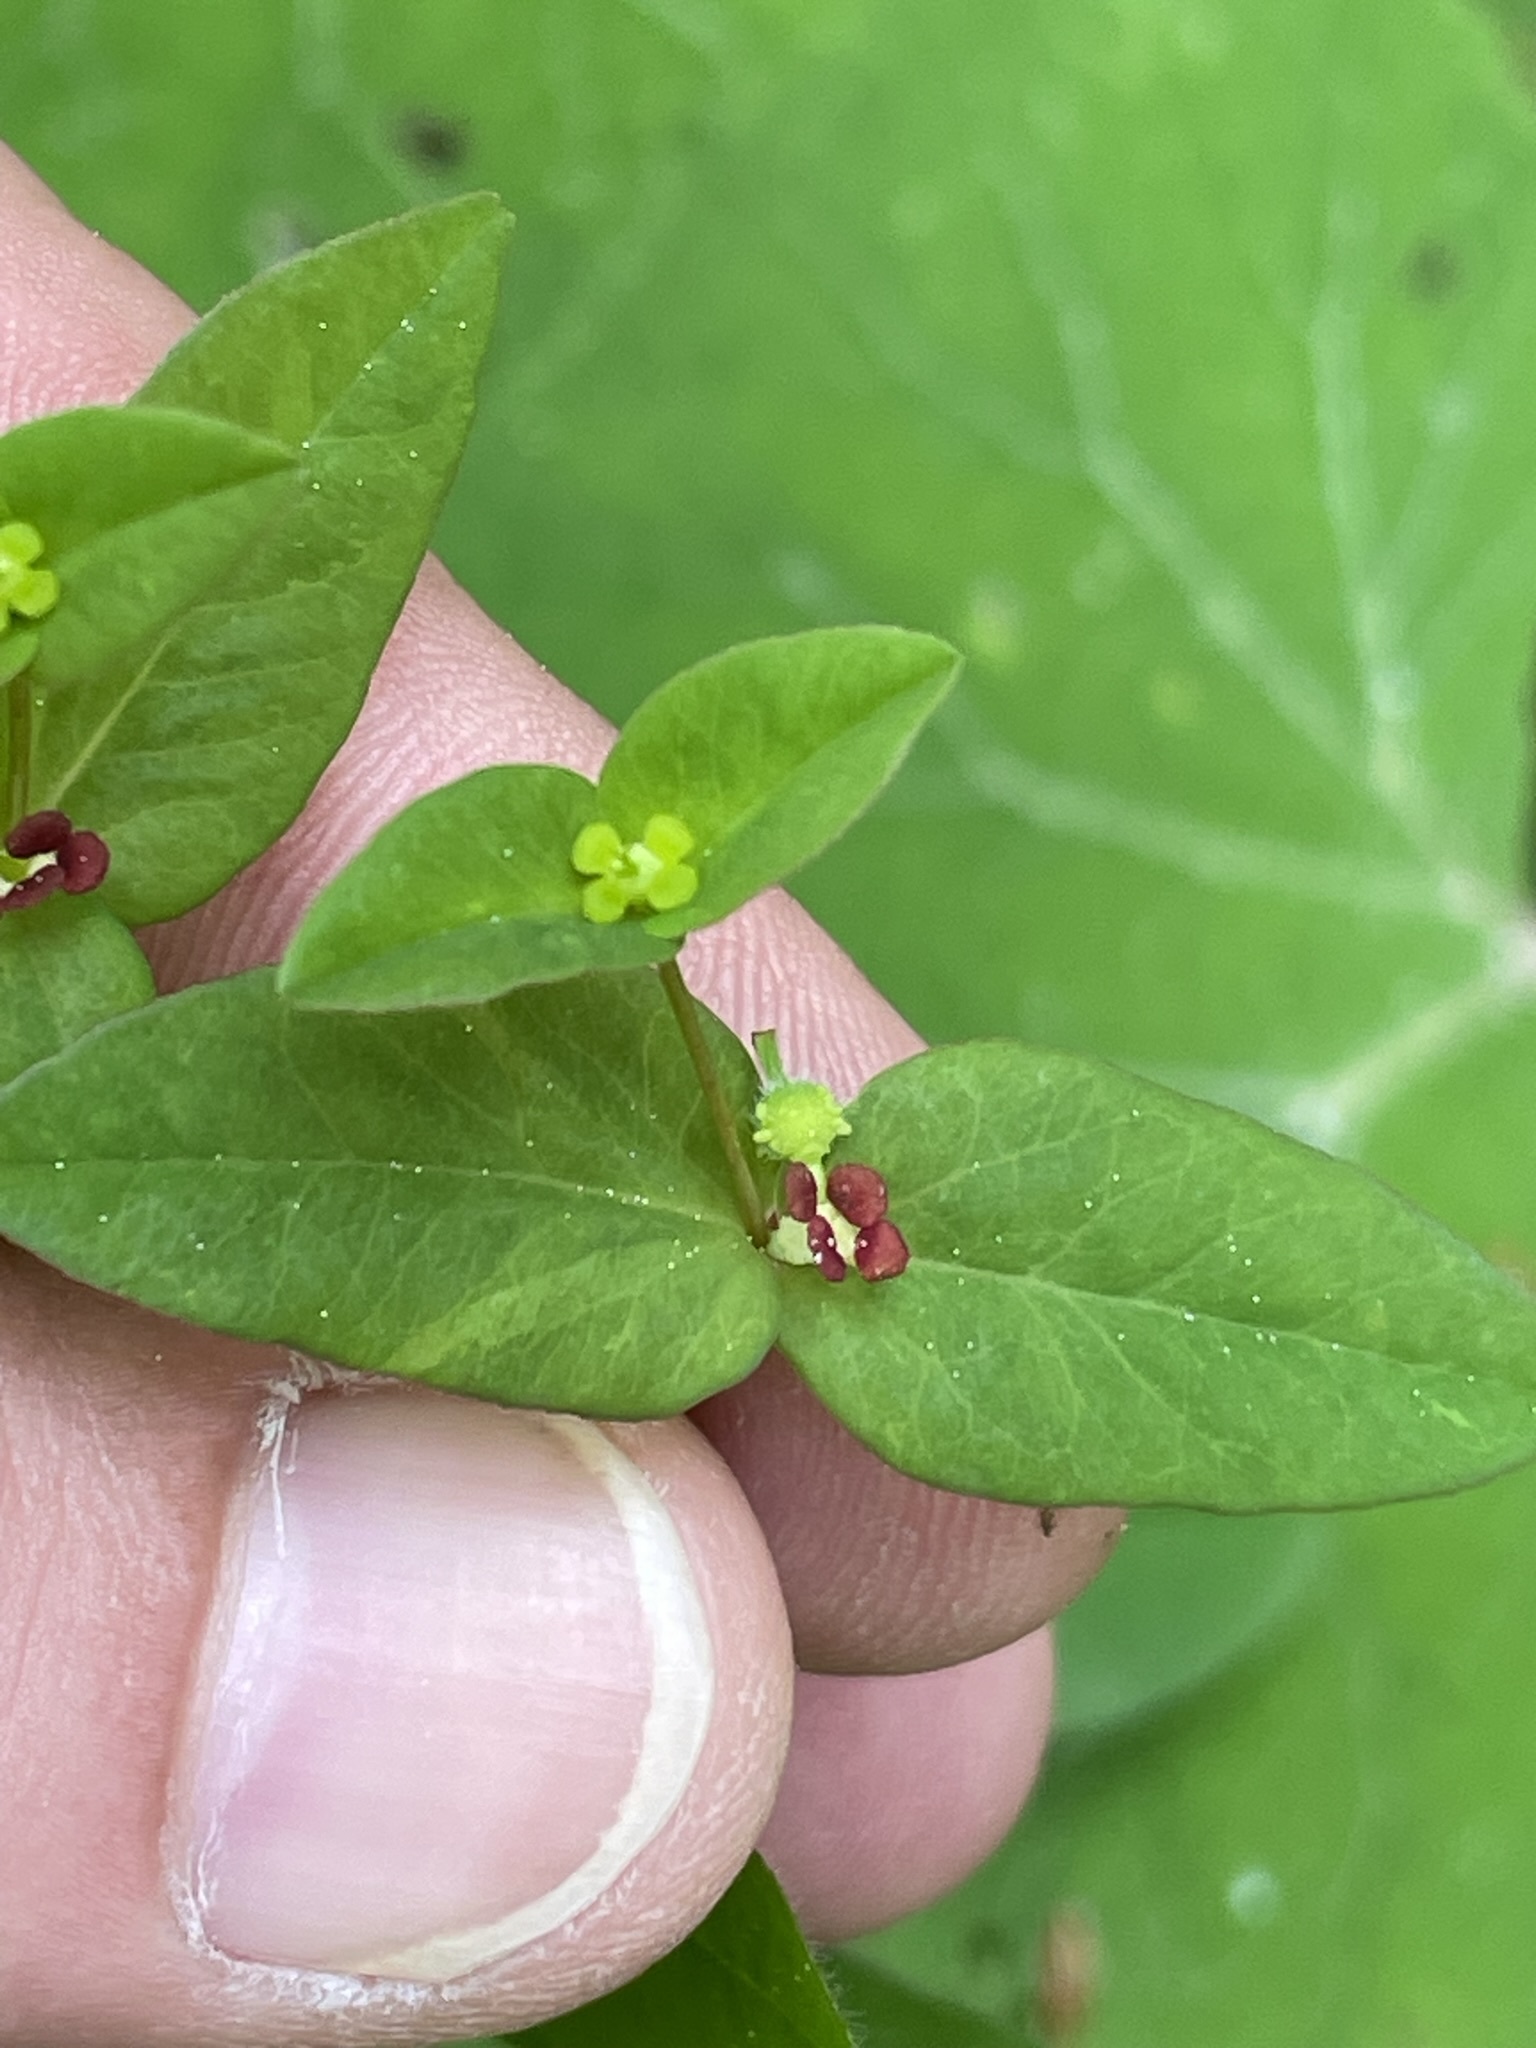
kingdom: Plantae
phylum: Tracheophyta
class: Magnoliopsida
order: Malpighiales
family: Euphorbiaceae
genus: Euphorbia
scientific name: Euphorbia dulcis
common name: Sweet spurge
